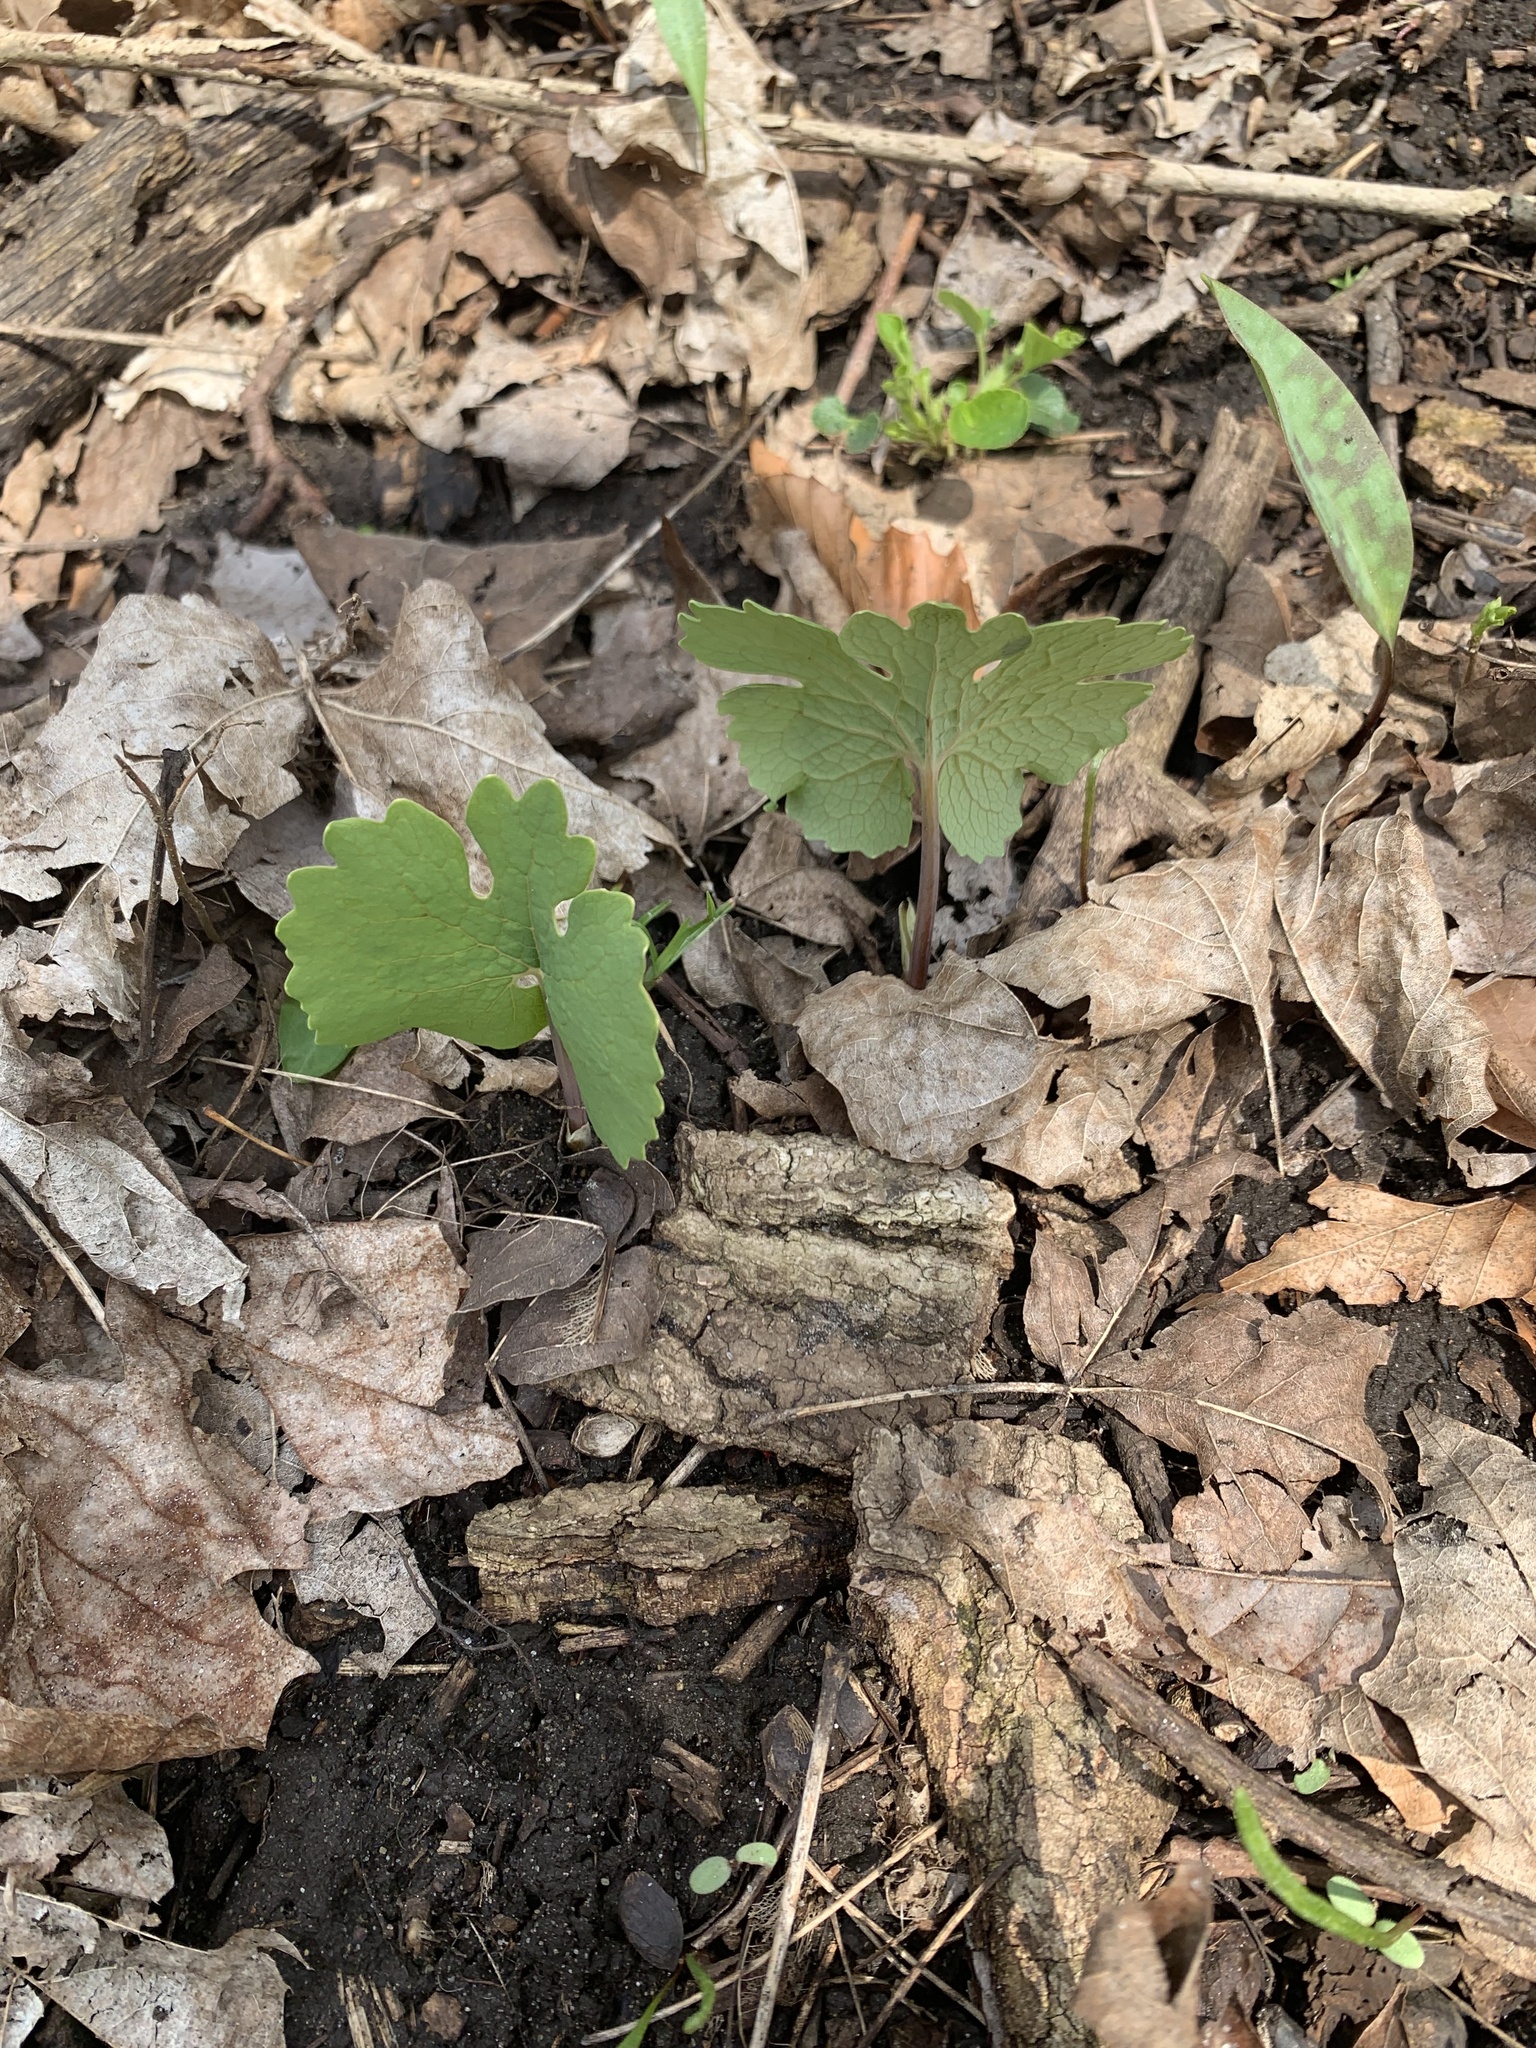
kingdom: Plantae
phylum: Tracheophyta
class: Magnoliopsida
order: Ranunculales
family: Papaveraceae
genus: Sanguinaria
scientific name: Sanguinaria canadensis
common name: Bloodroot
